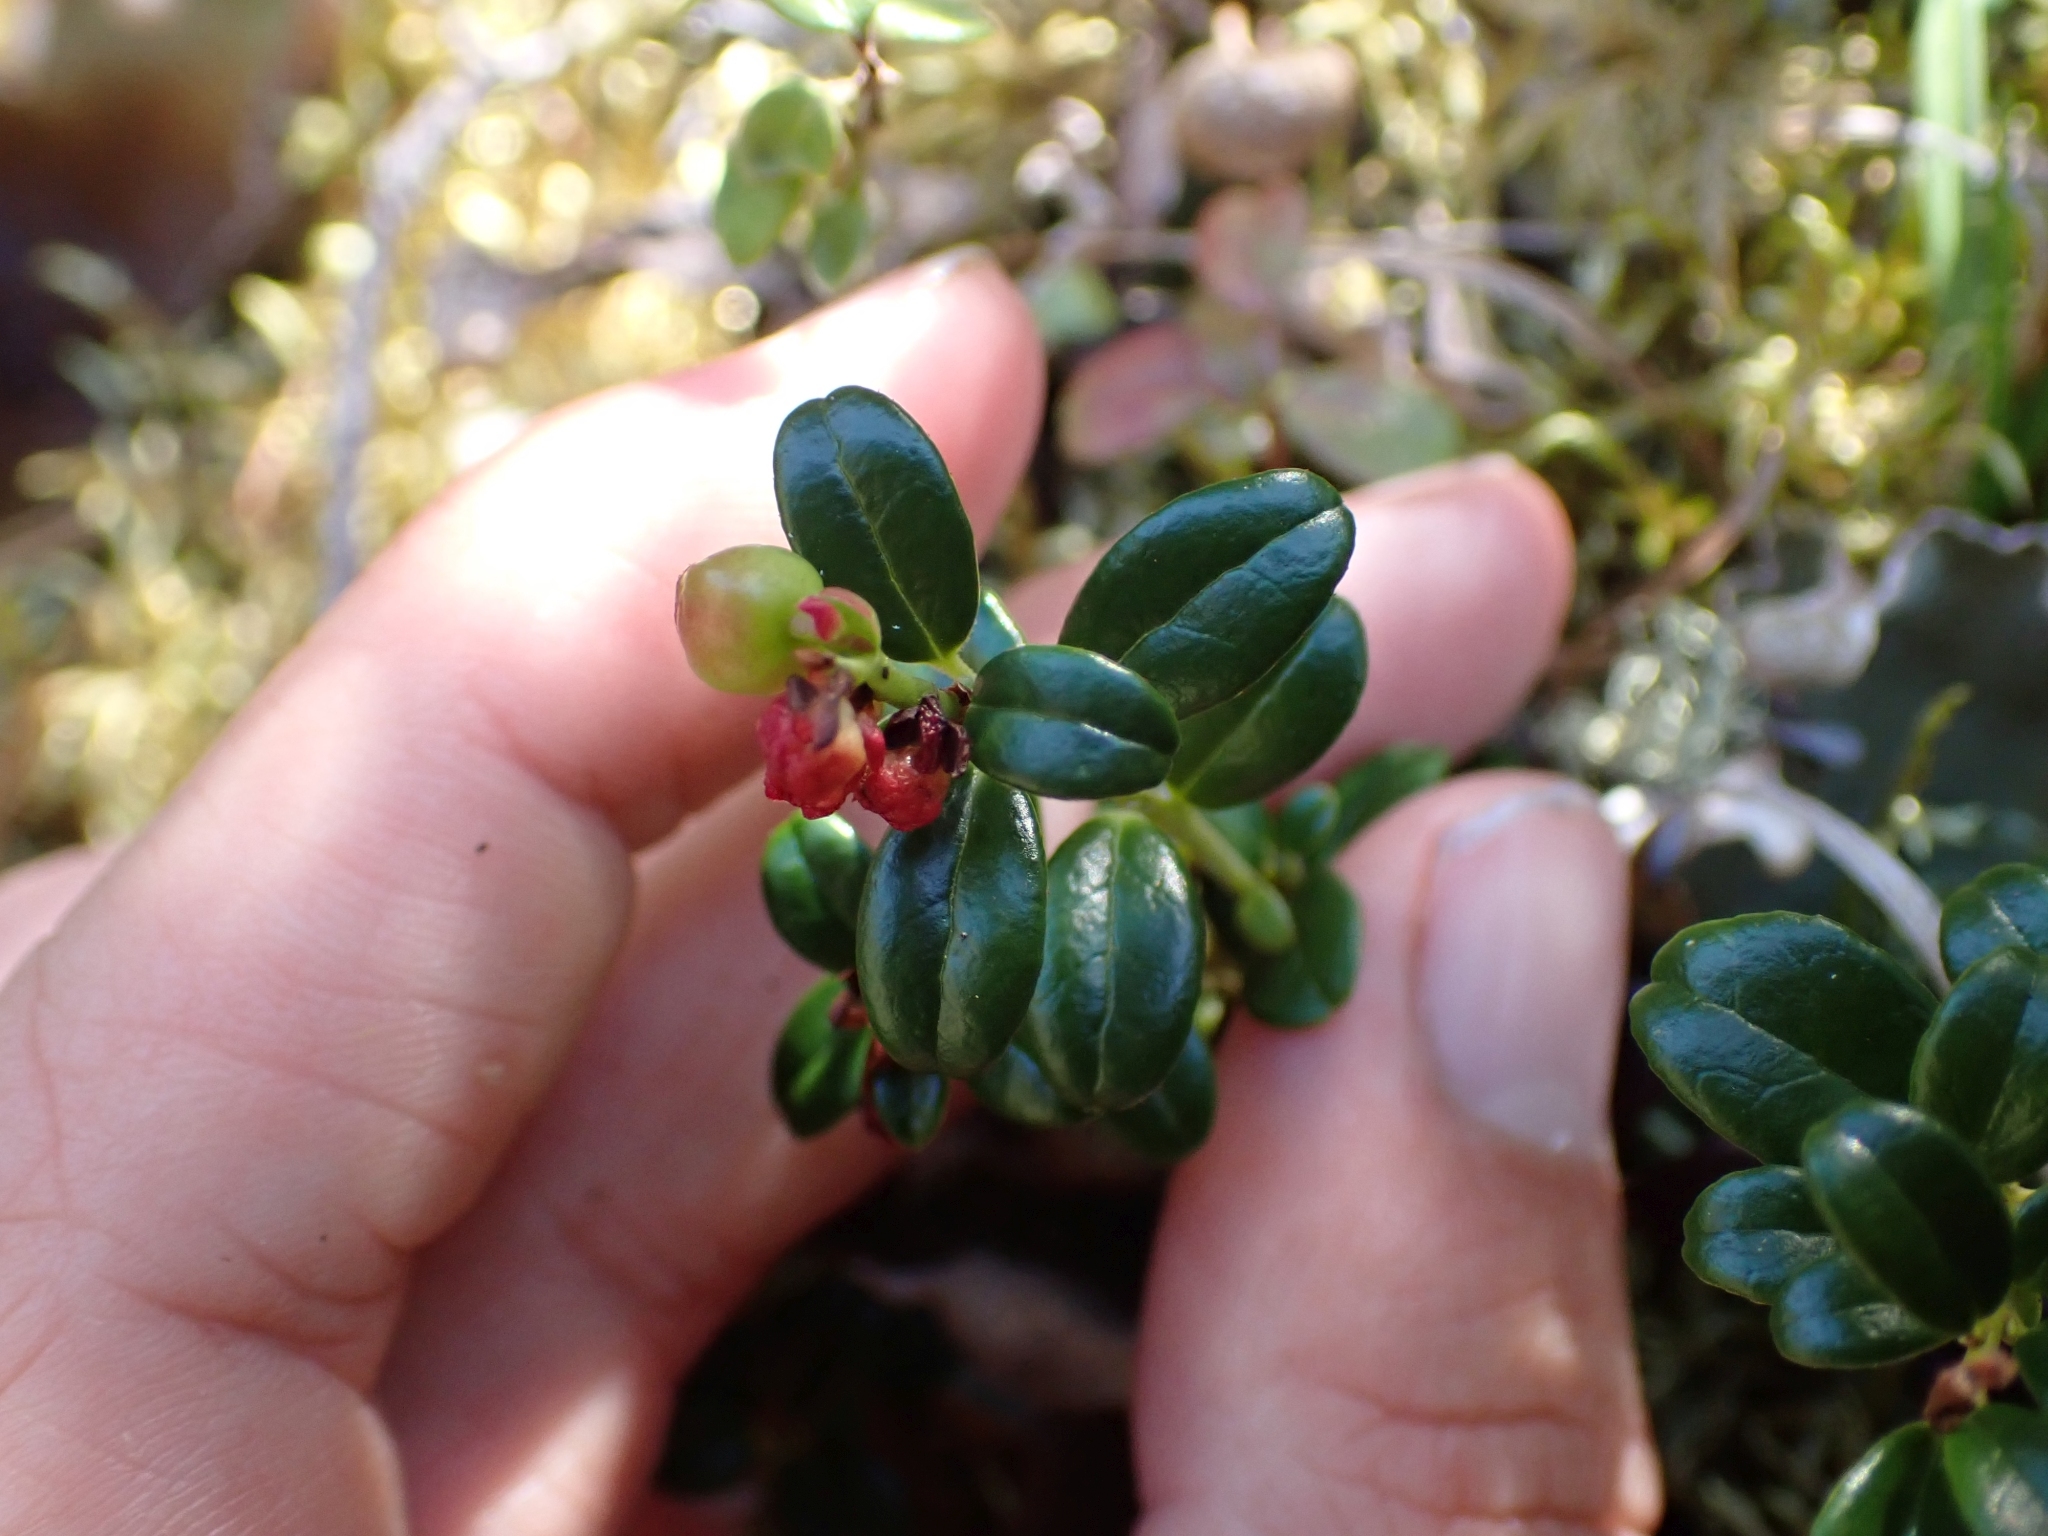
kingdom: Plantae
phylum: Tracheophyta
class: Magnoliopsida
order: Ericales
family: Ericaceae
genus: Vaccinium
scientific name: Vaccinium vitis-idaea
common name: Cowberry
